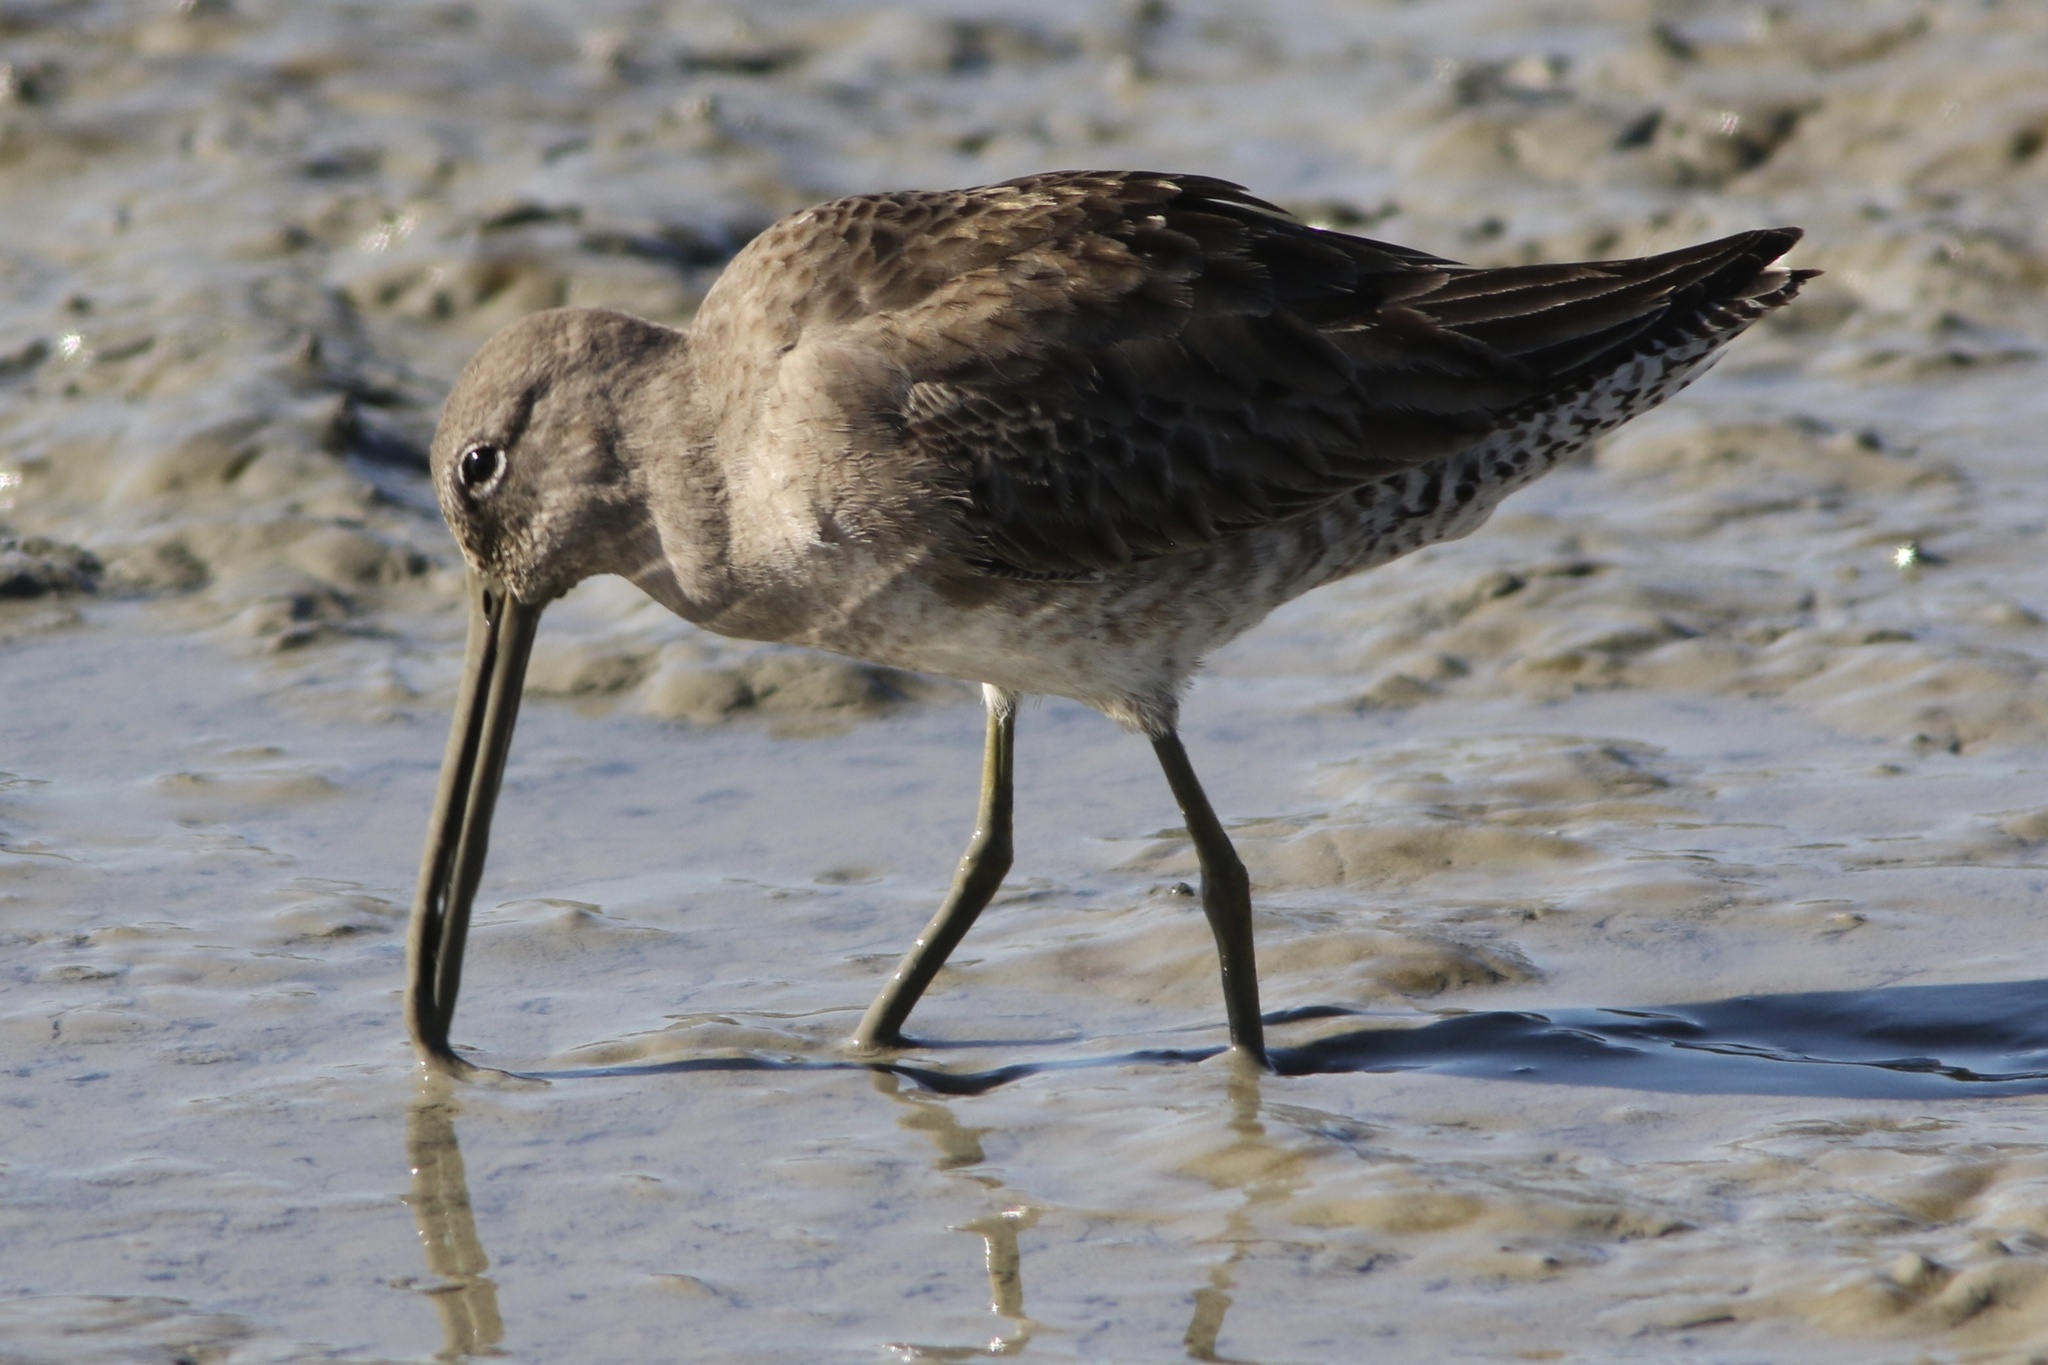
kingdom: Animalia
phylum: Chordata
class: Aves
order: Charadriiformes
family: Scolopacidae
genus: Limnodromus
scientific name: Limnodromus
